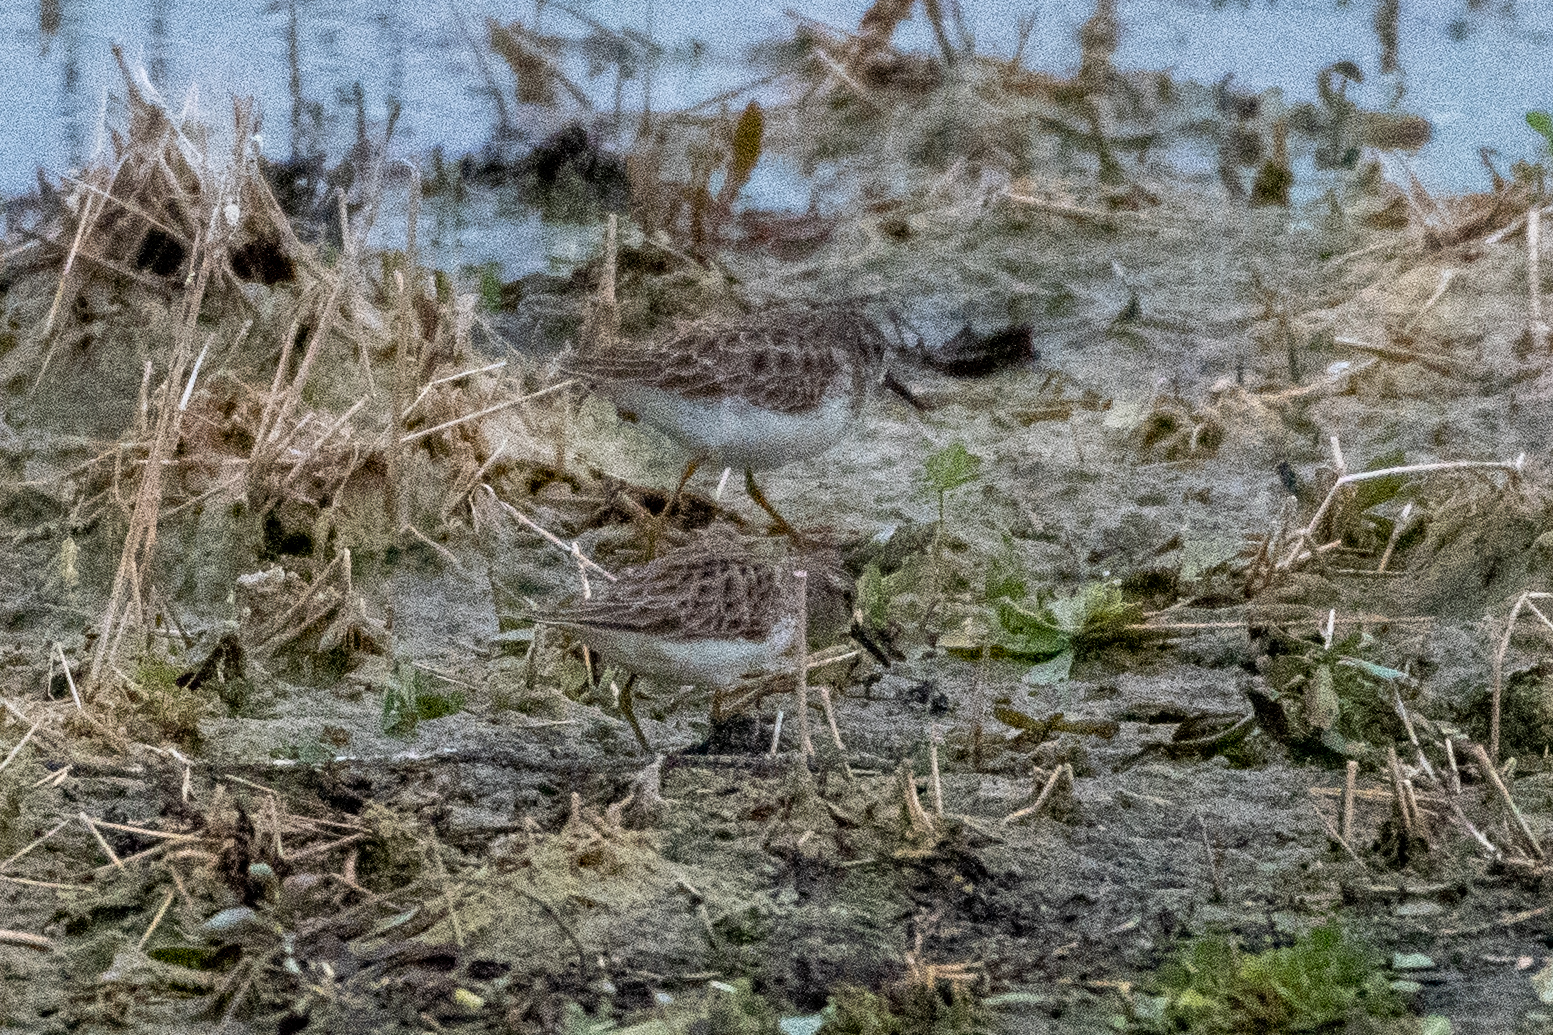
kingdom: Animalia
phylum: Chordata
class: Aves
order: Charadriiformes
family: Scolopacidae
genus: Calidris
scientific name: Calidris minutilla
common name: Least sandpiper
